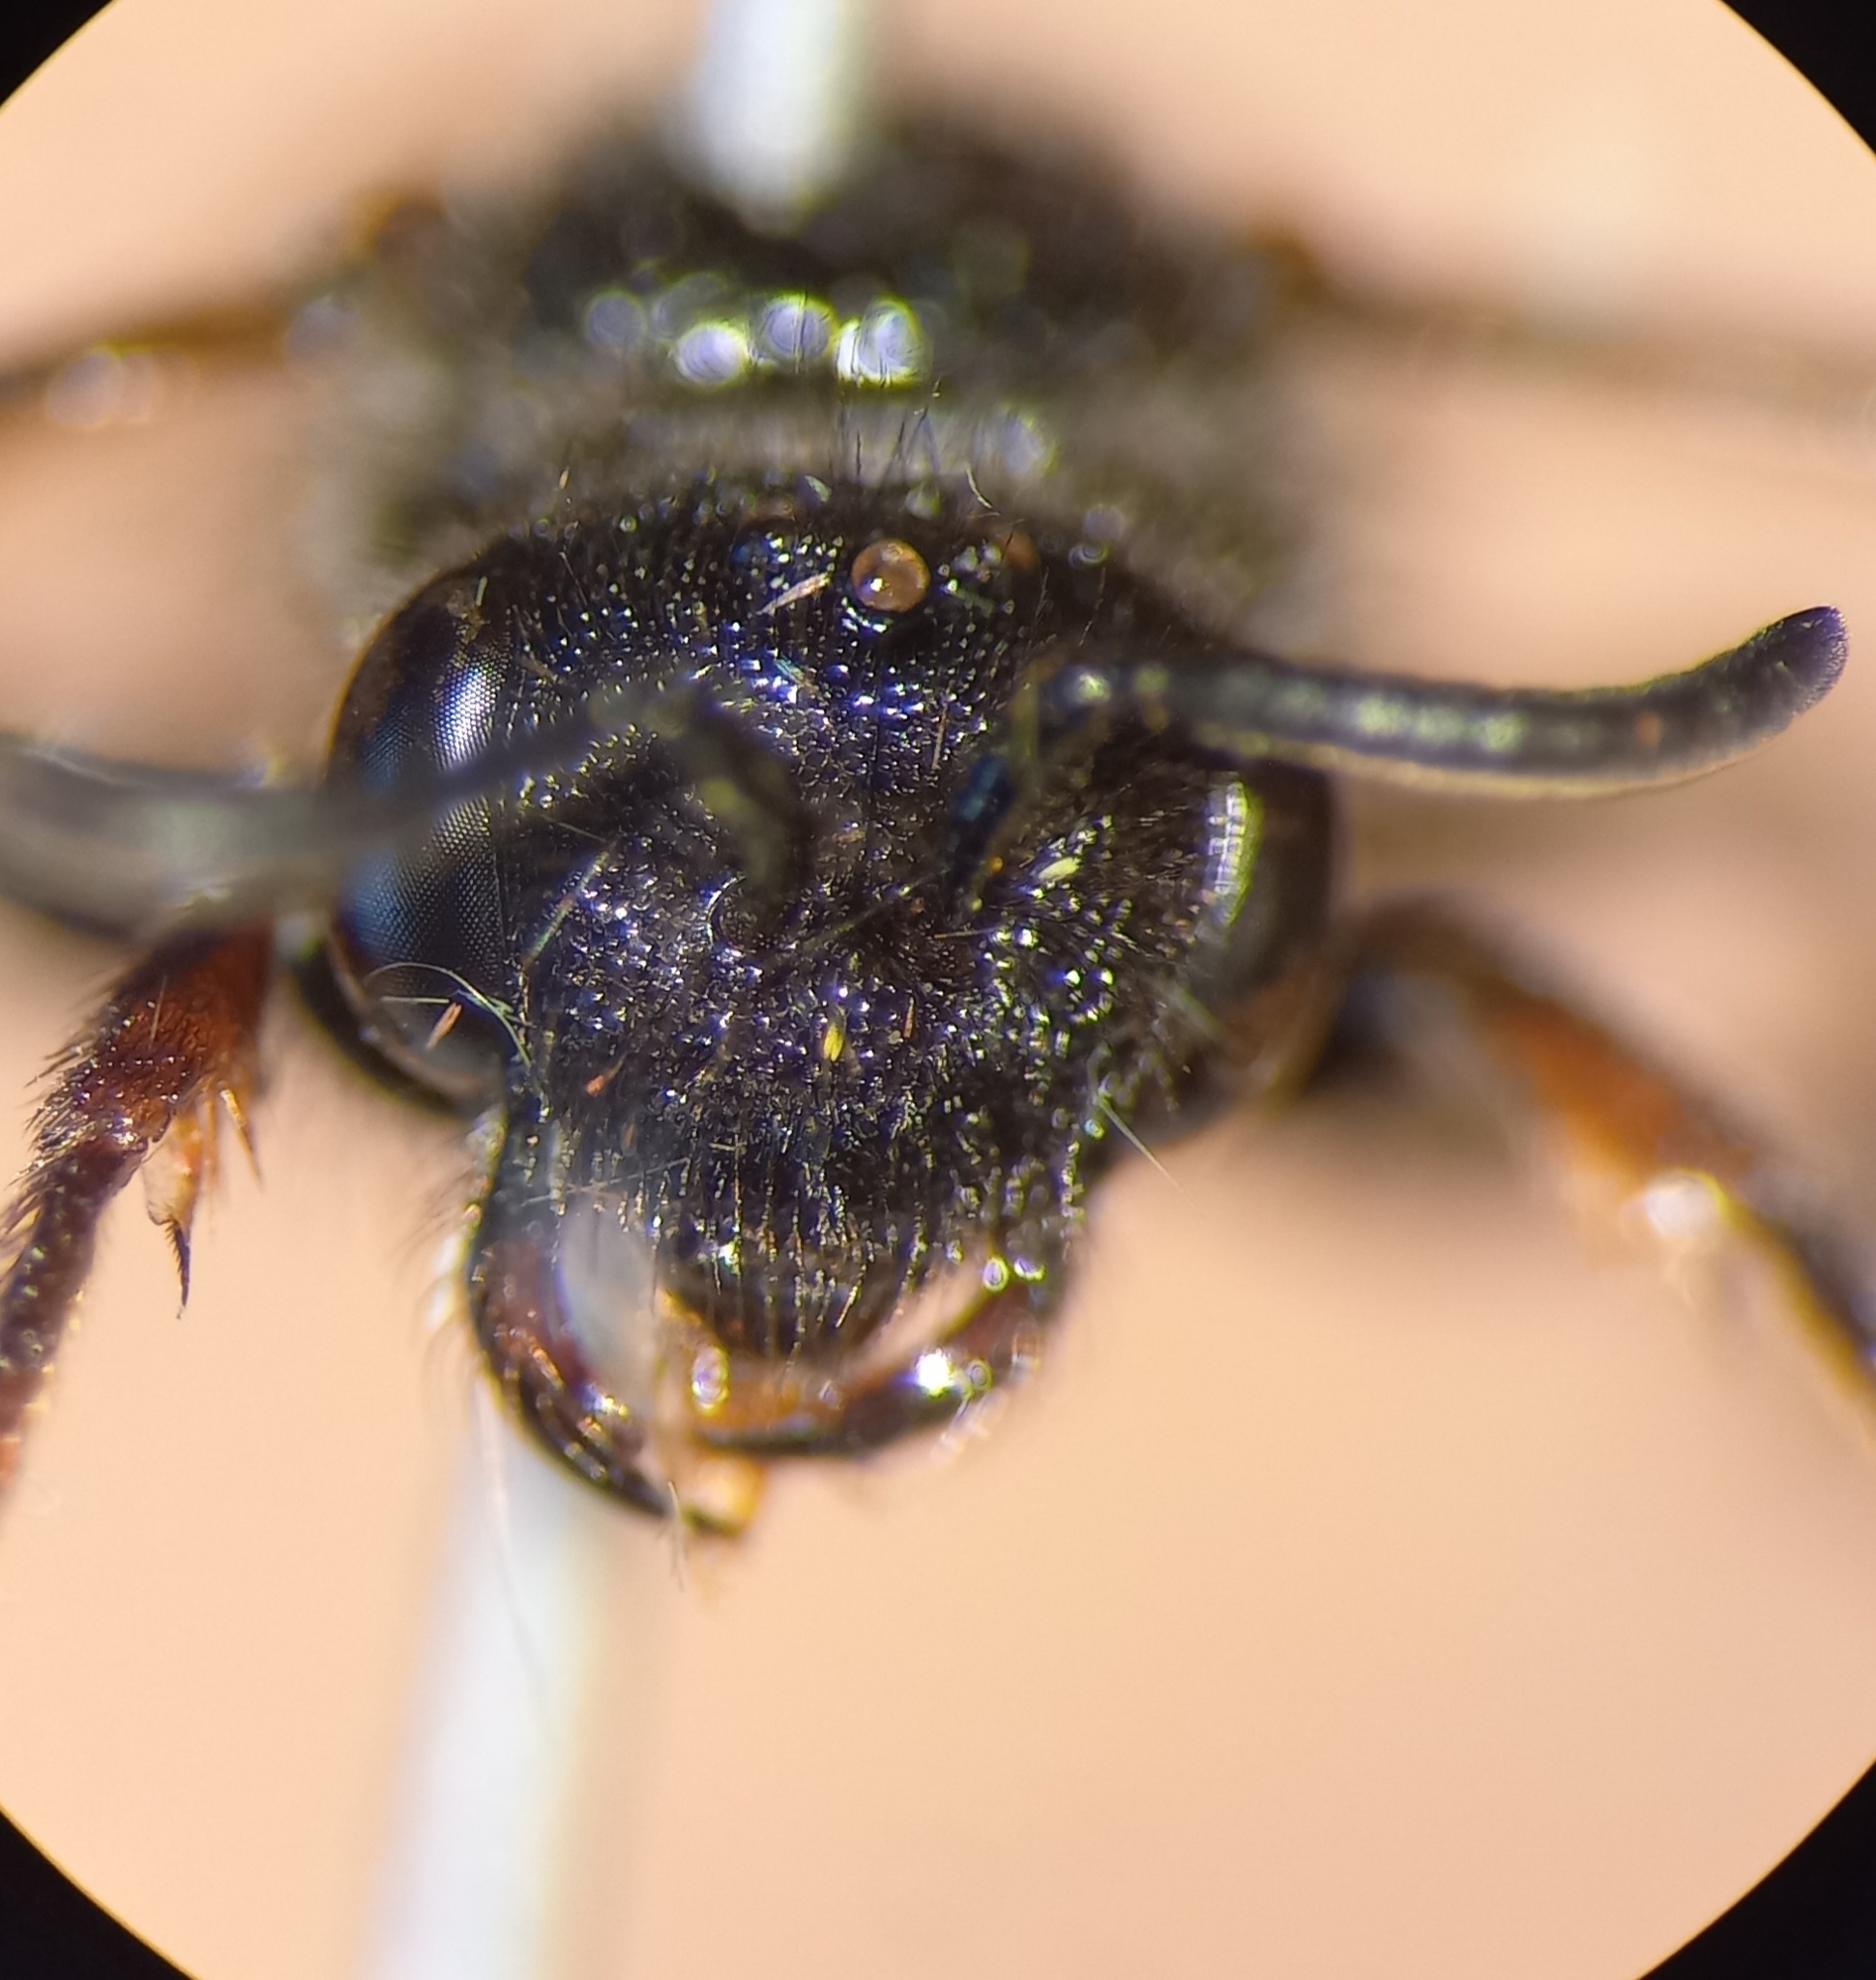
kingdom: Animalia
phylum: Arthropoda
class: Insecta
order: Hymenoptera
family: Halictidae
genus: Sphecodes
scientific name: Sphecodes ruficrus
